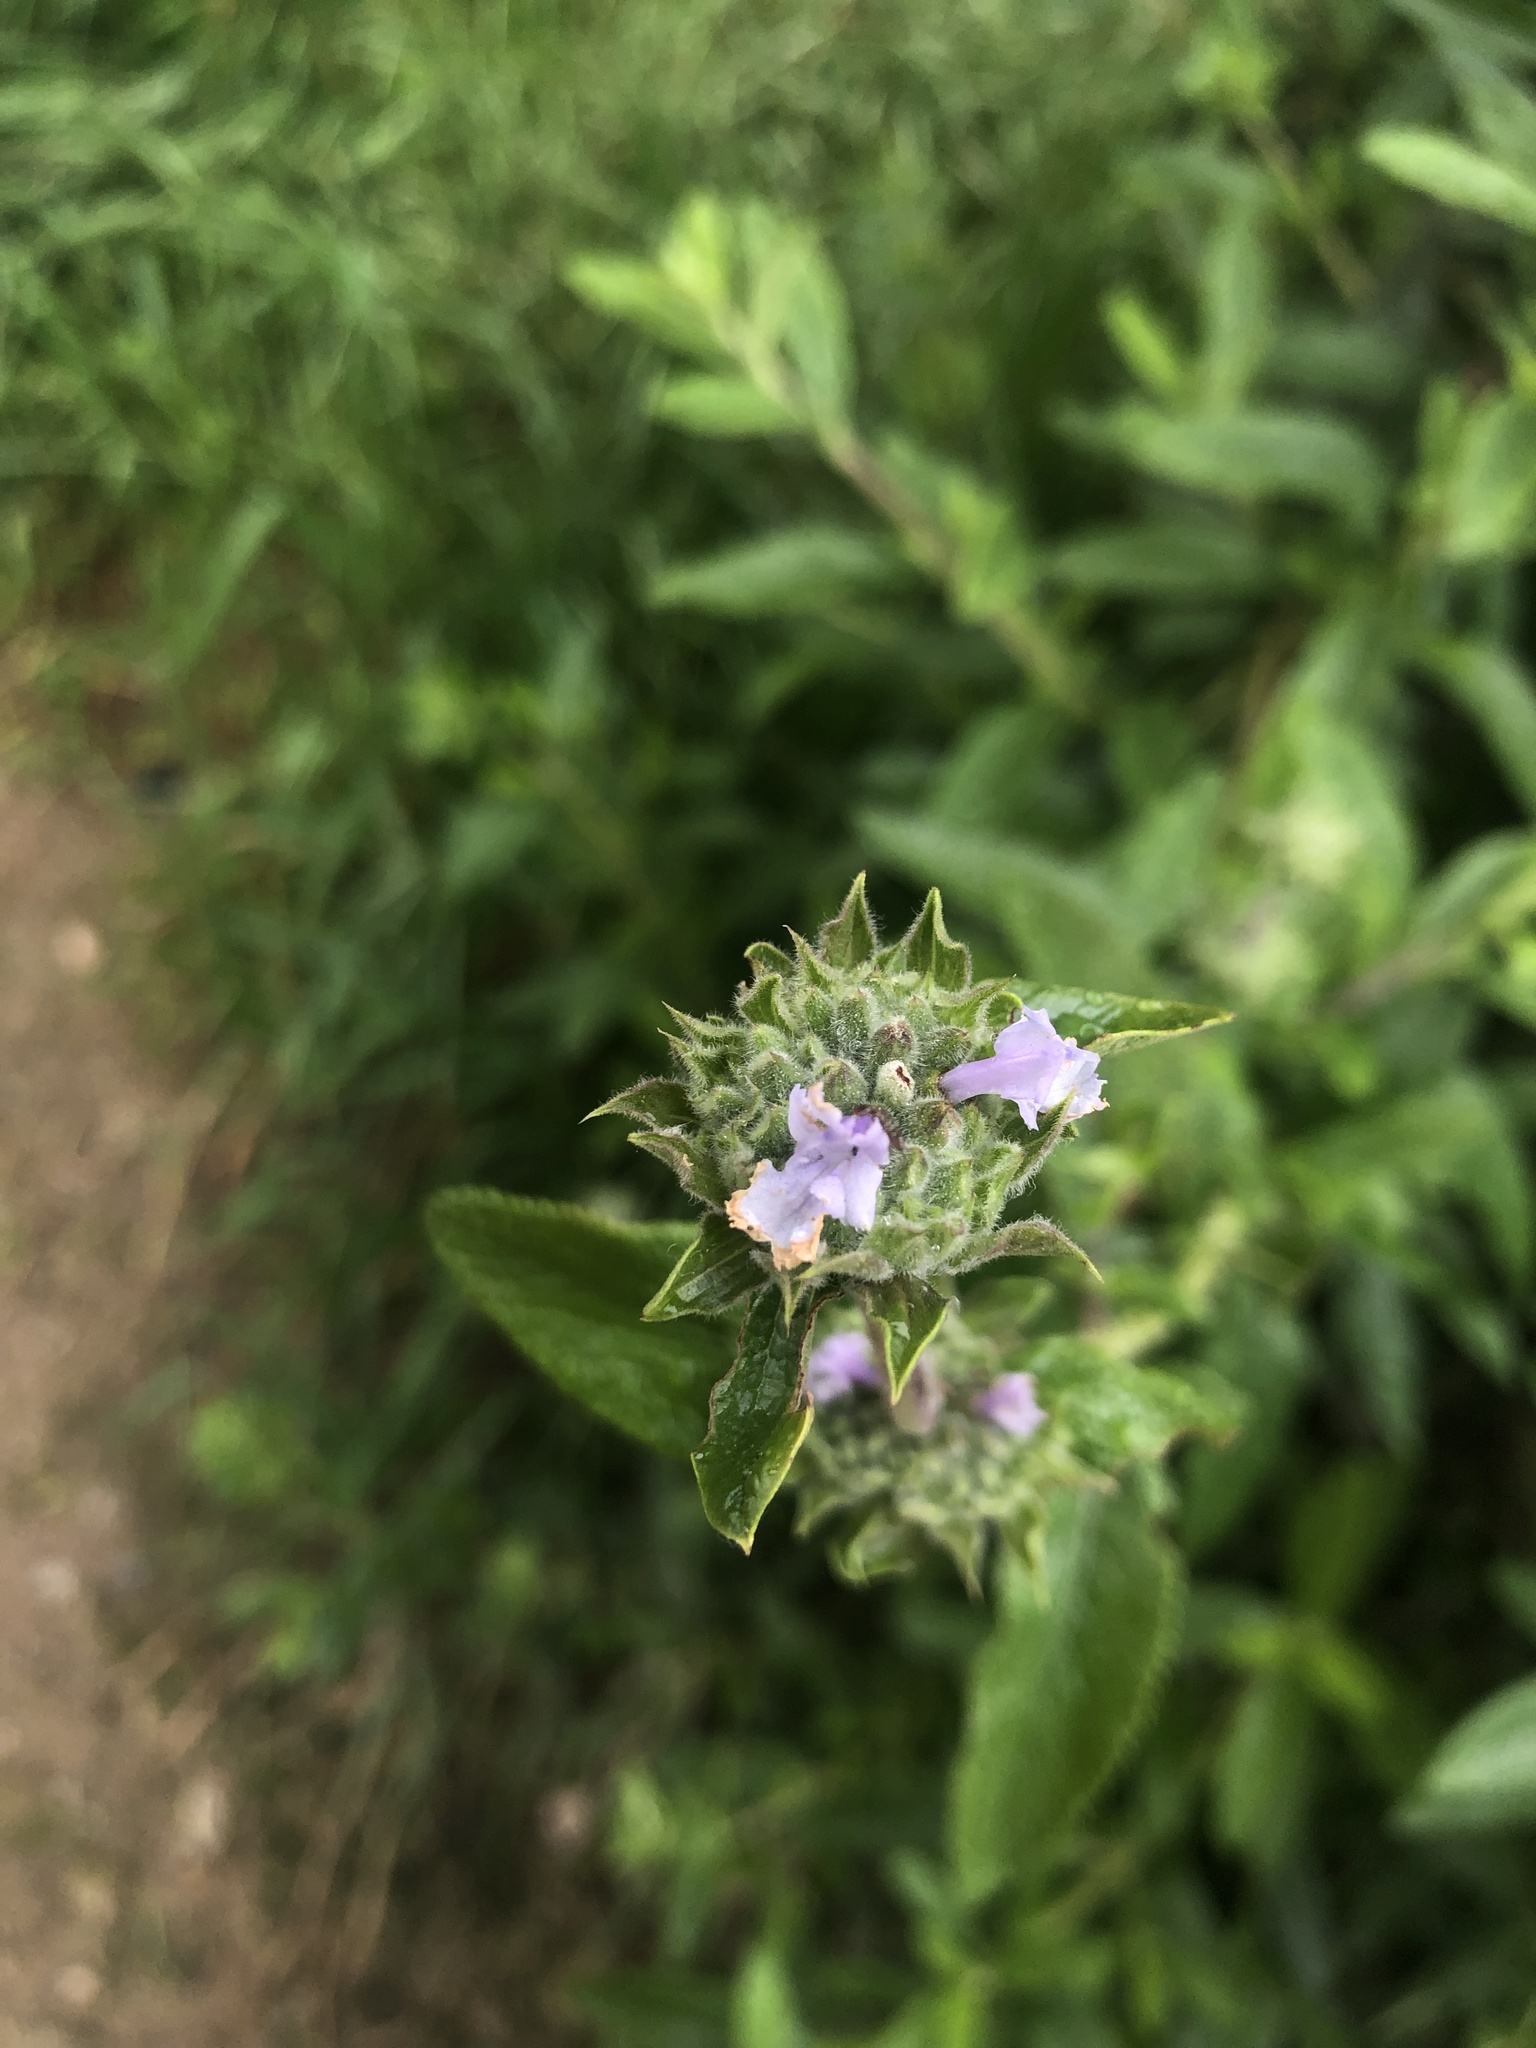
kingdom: Plantae
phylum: Tracheophyta
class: Magnoliopsida
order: Lamiales
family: Lamiaceae
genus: Salvia
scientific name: Salvia mellifera
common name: Black sage
